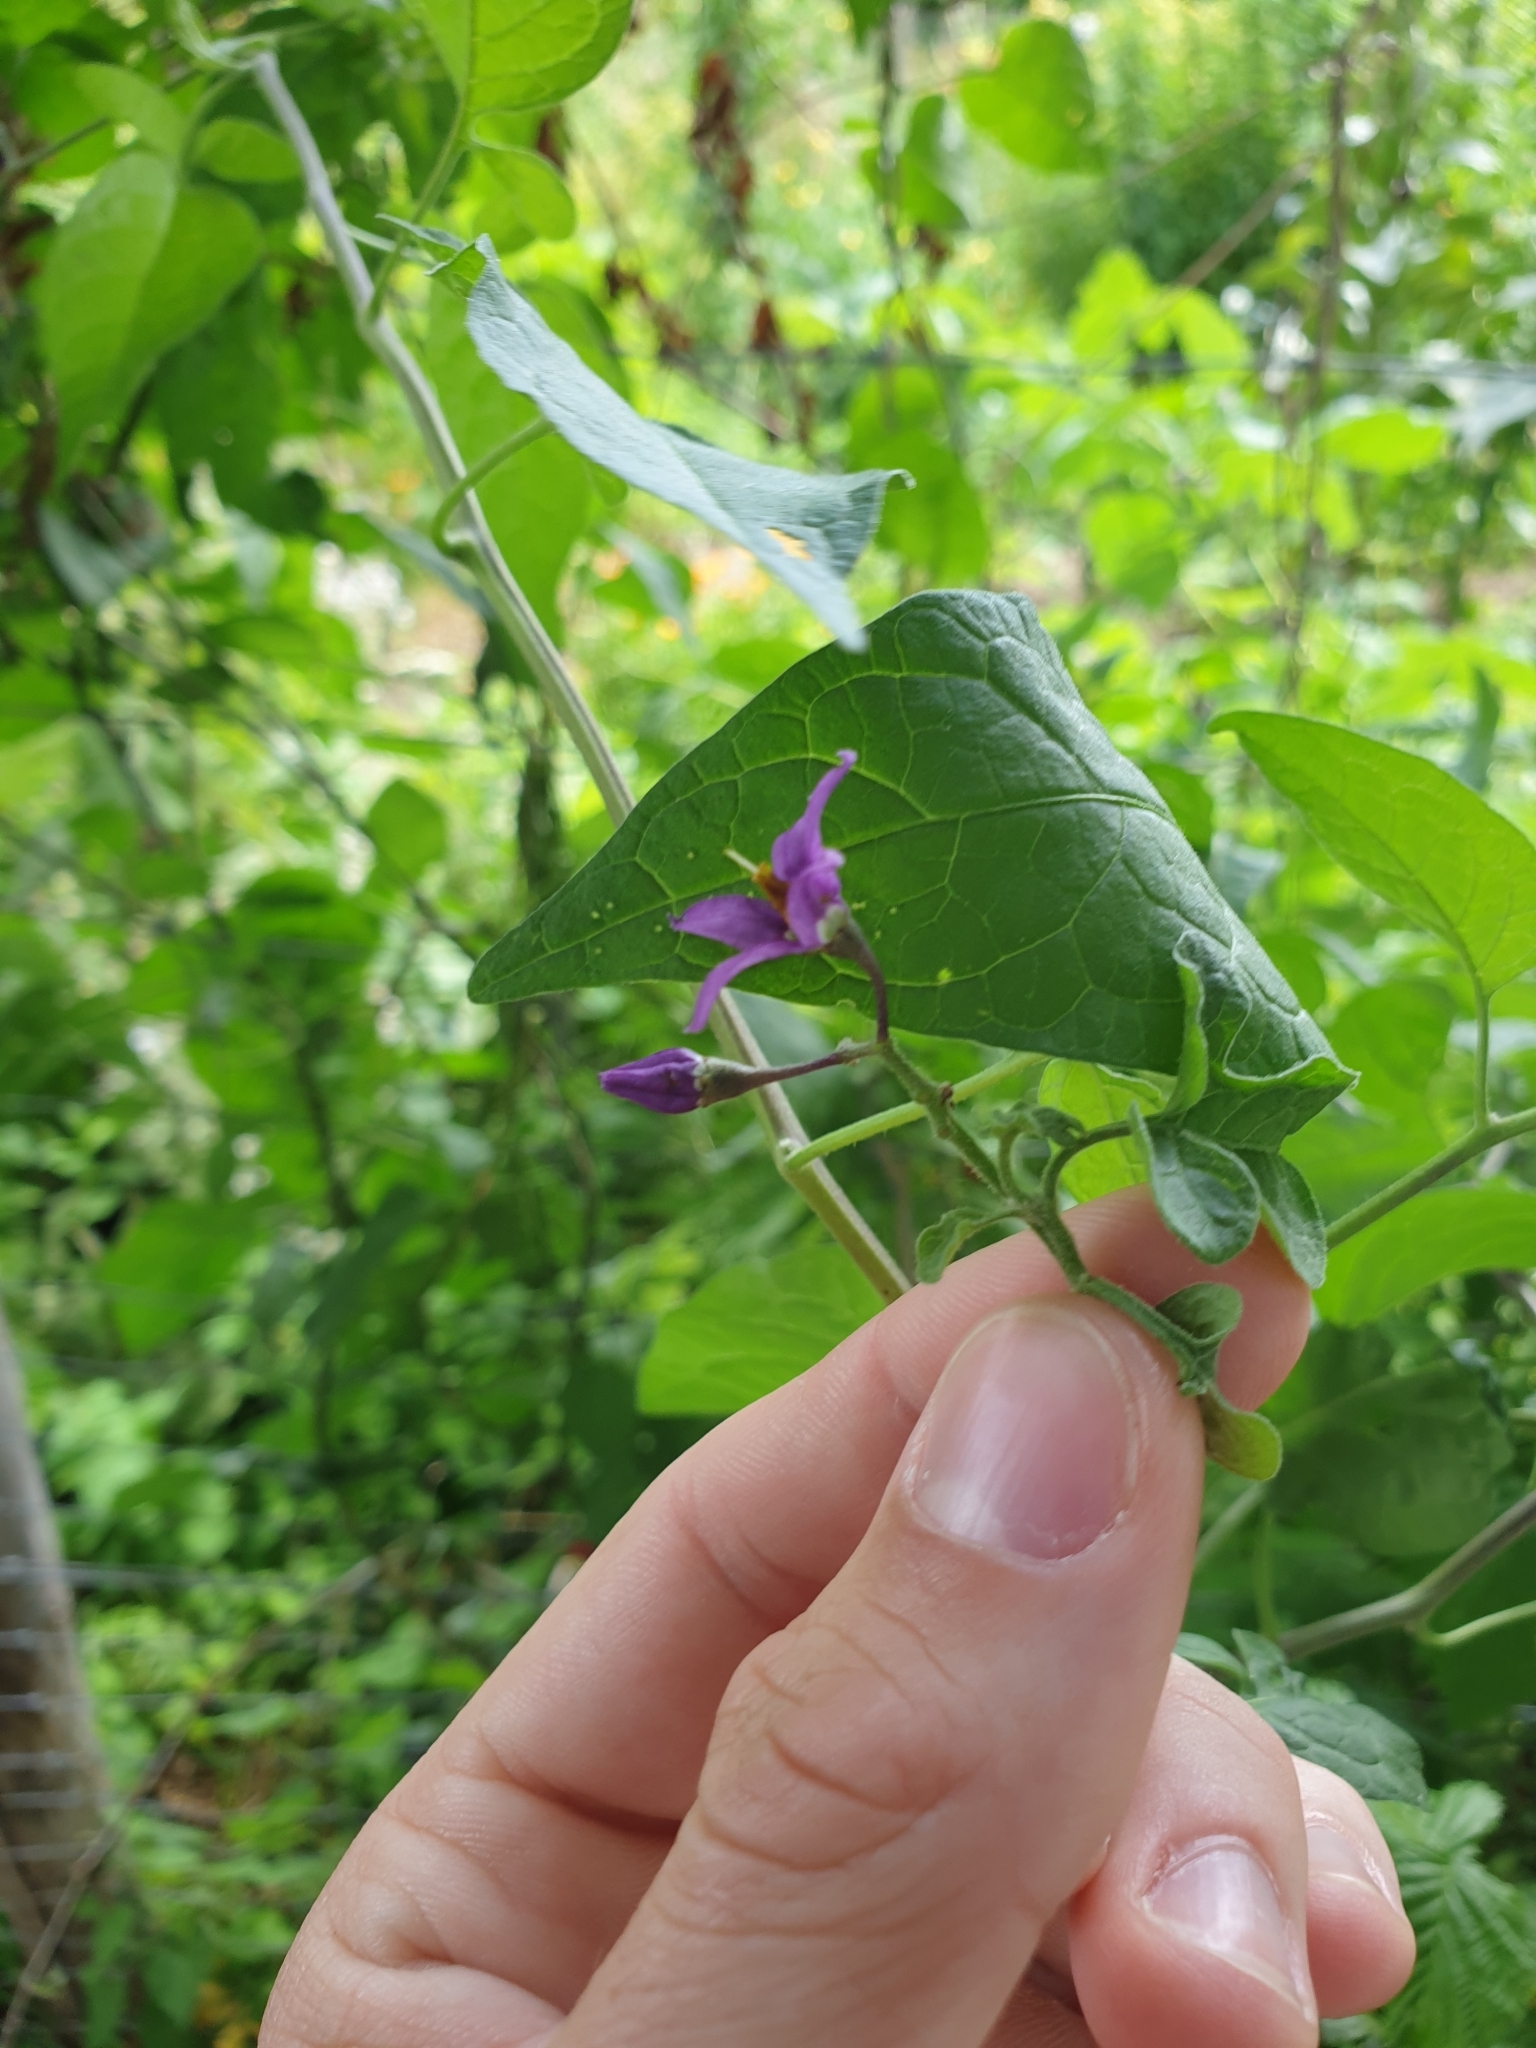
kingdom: Plantae
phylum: Tracheophyta
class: Magnoliopsida
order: Solanales
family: Solanaceae
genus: Solanum
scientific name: Solanum dulcamara
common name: Climbing nightshade
